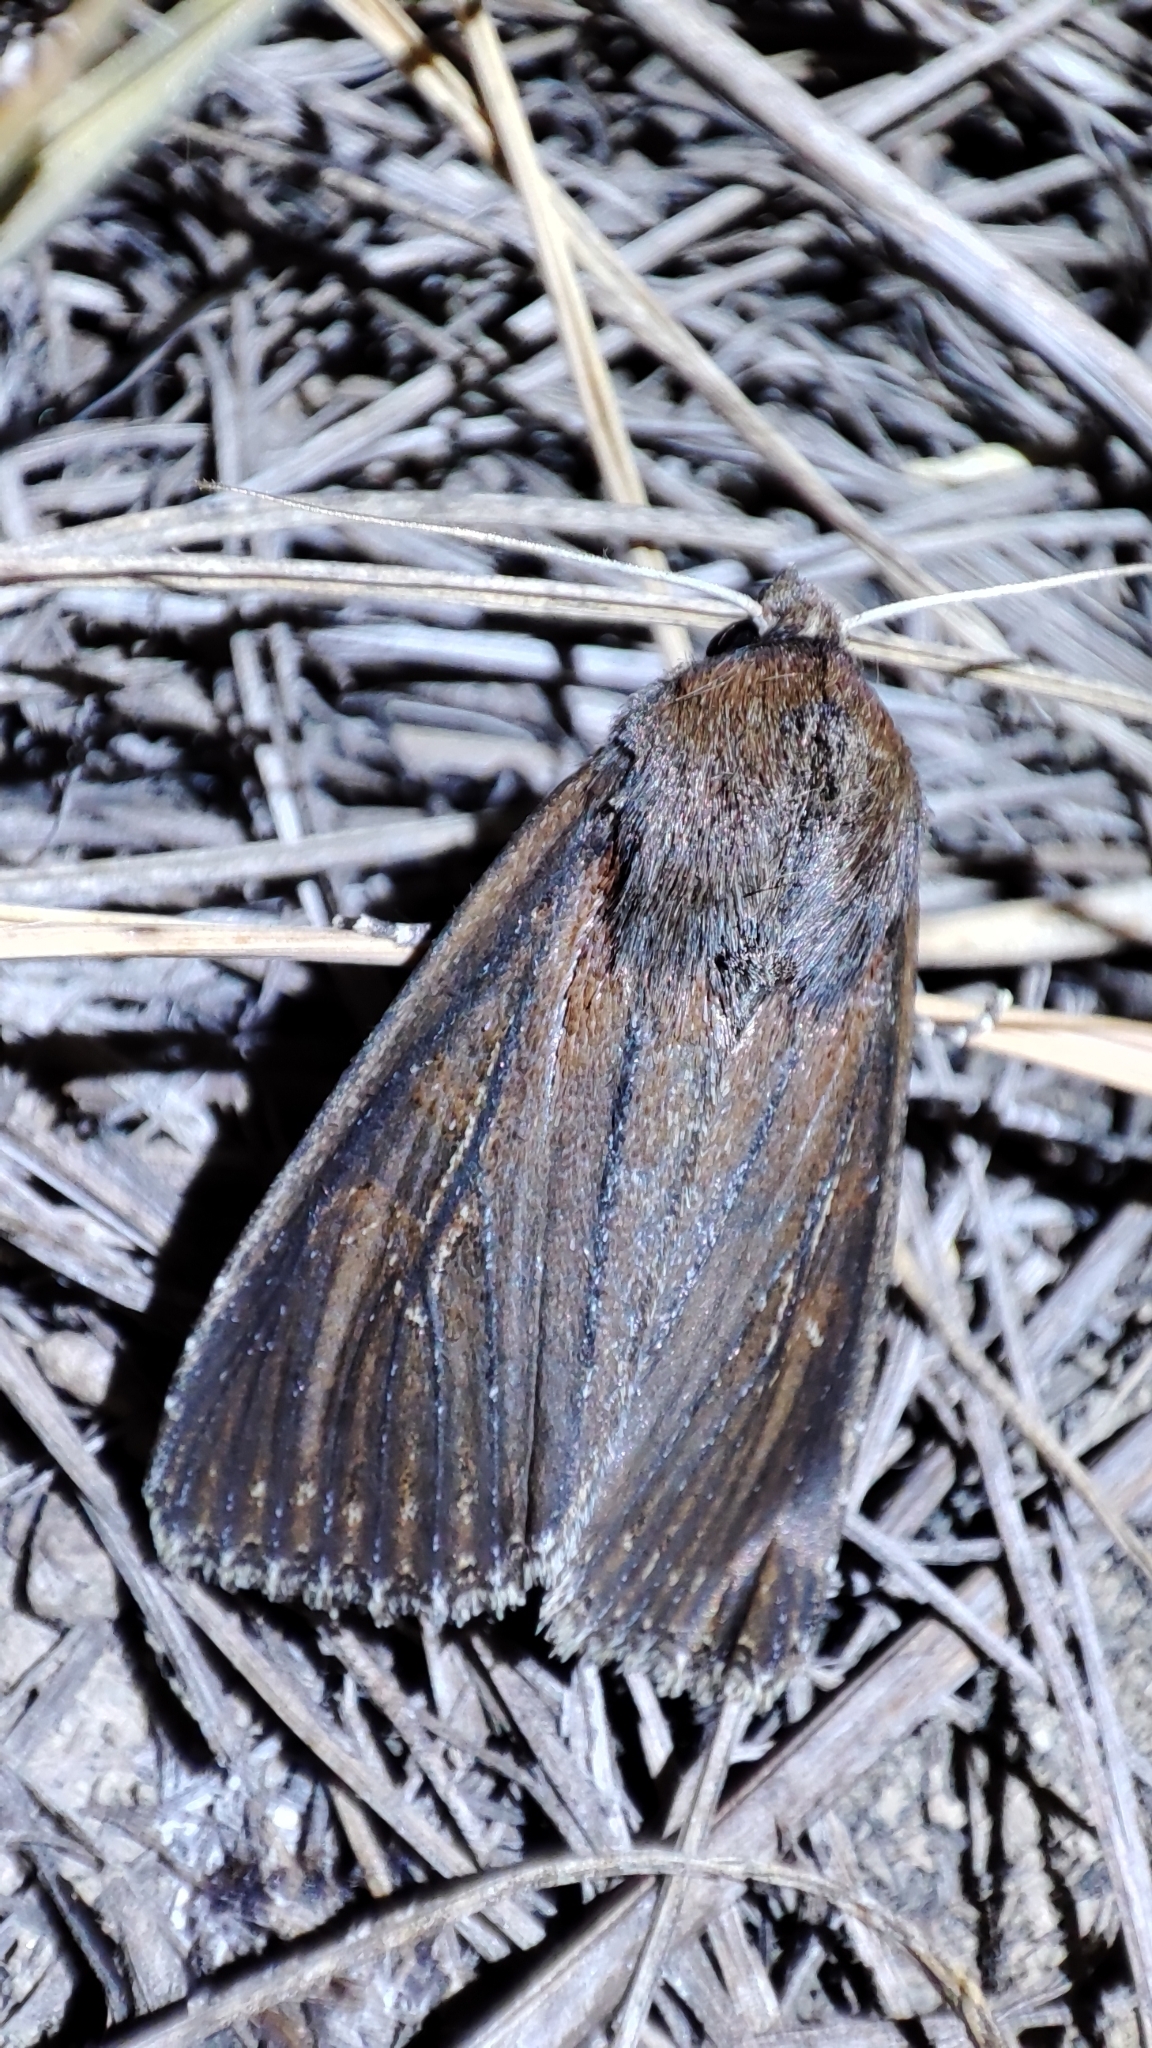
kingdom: Animalia
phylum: Arthropoda
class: Insecta
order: Lepidoptera
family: Noctuidae
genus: Nonagria
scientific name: Nonagria typhae
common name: Bulrush wainscot
